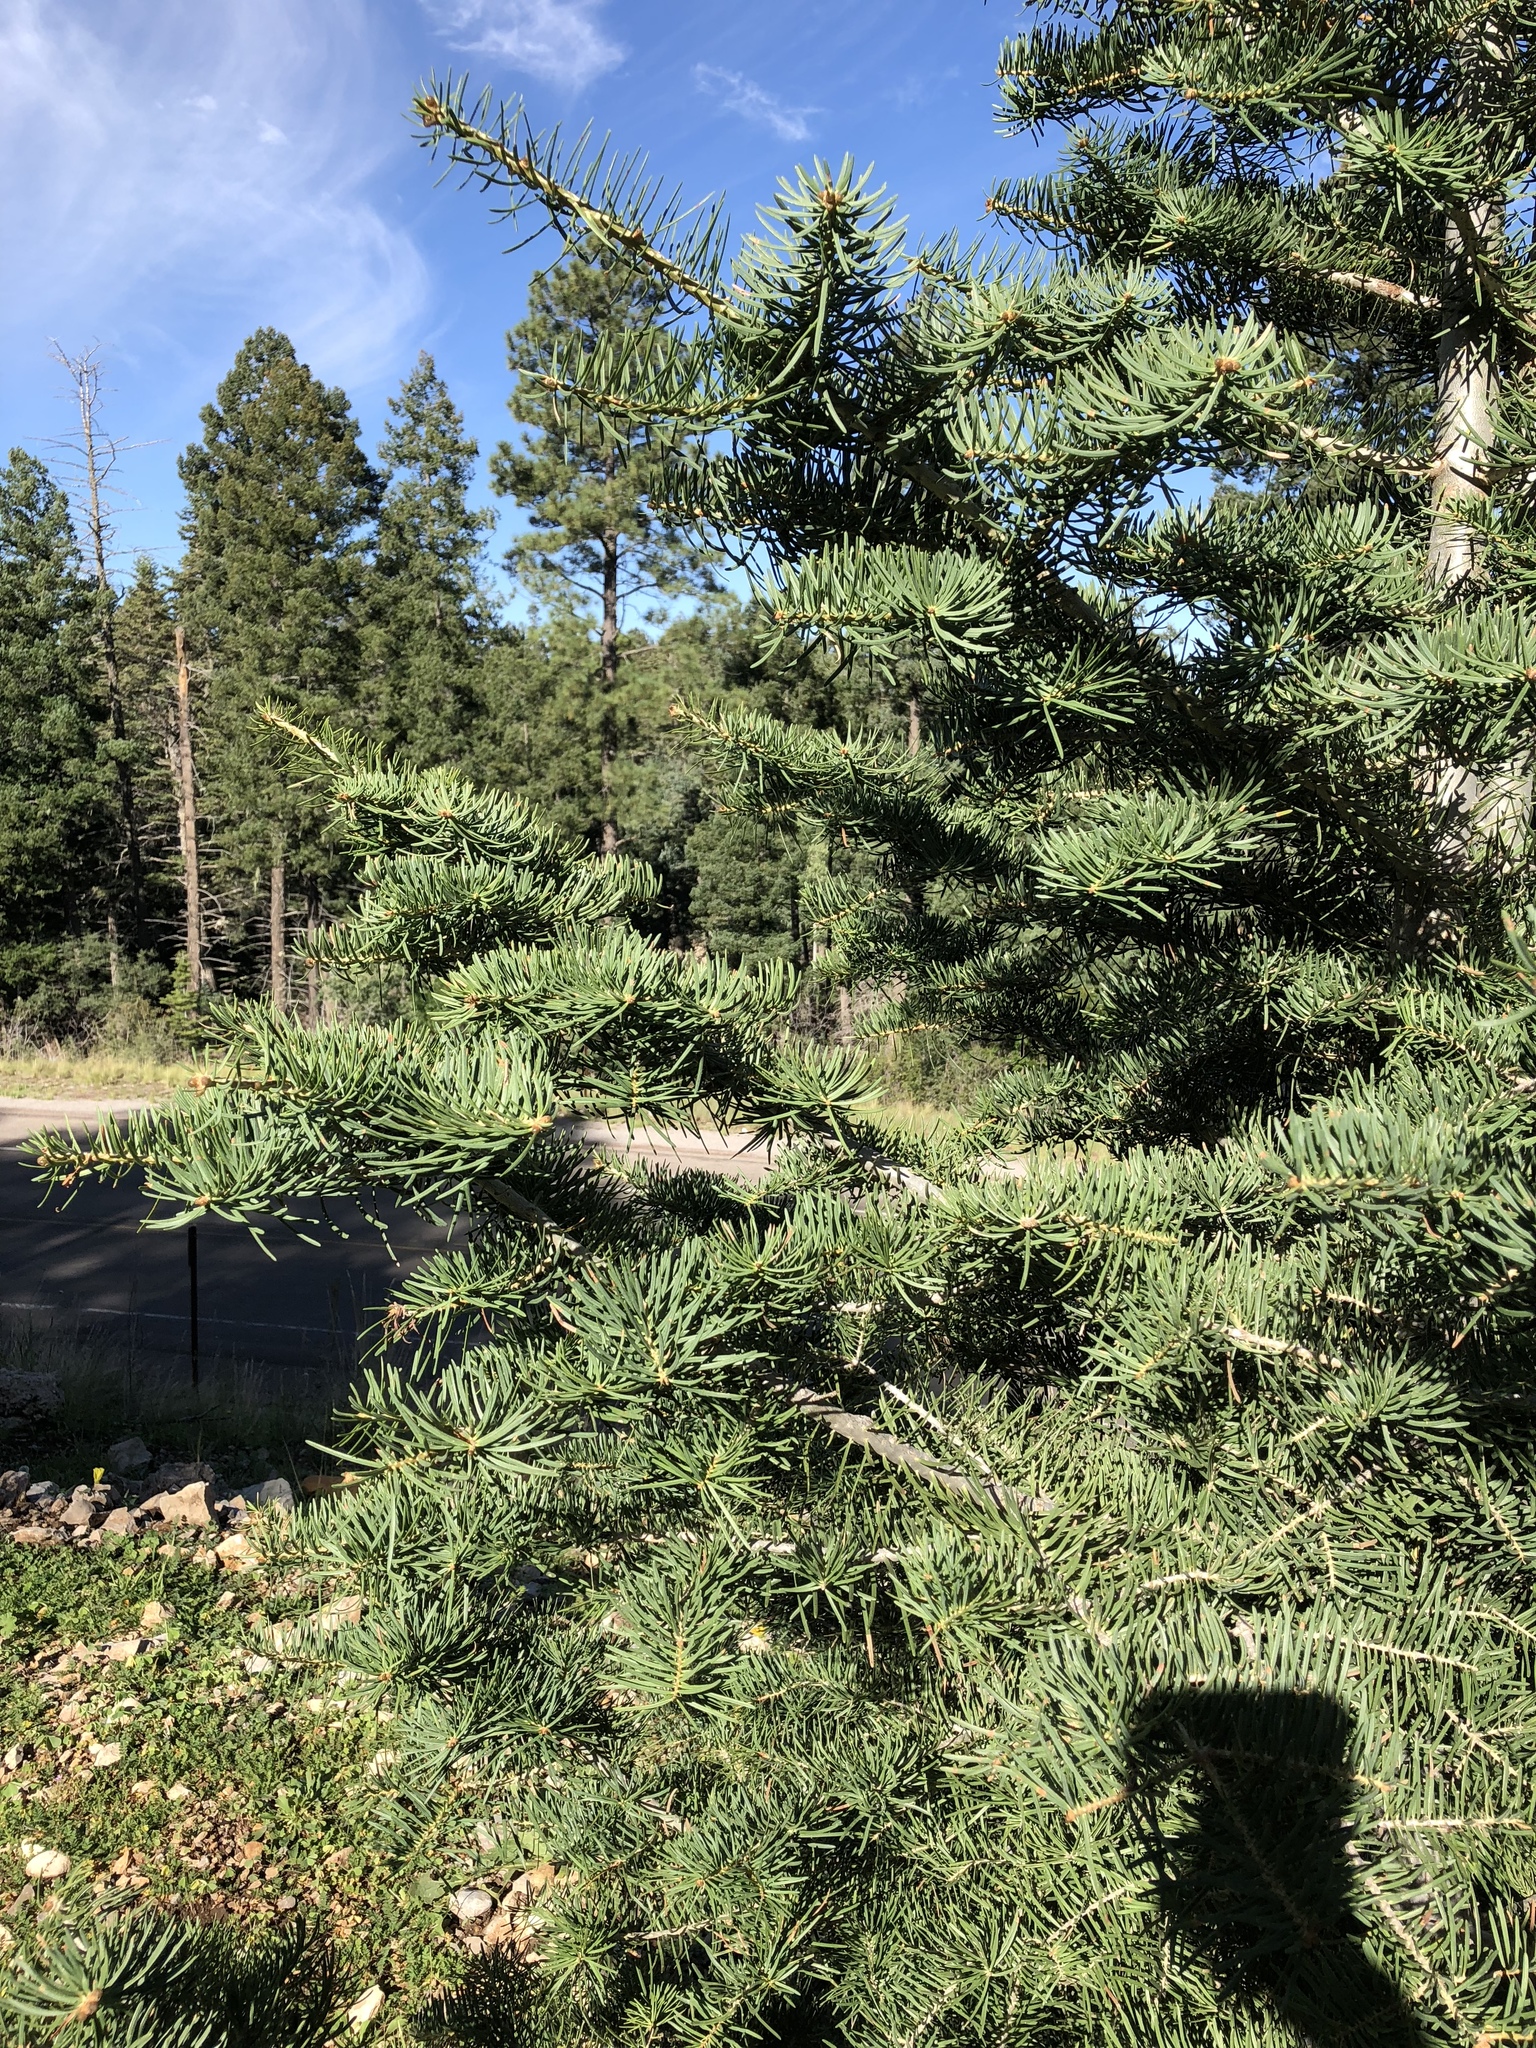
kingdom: Plantae
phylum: Tracheophyta
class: Pinopsida
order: Pinales
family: Pinaceae
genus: Abies
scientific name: Abies concolor
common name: Colorado fir
